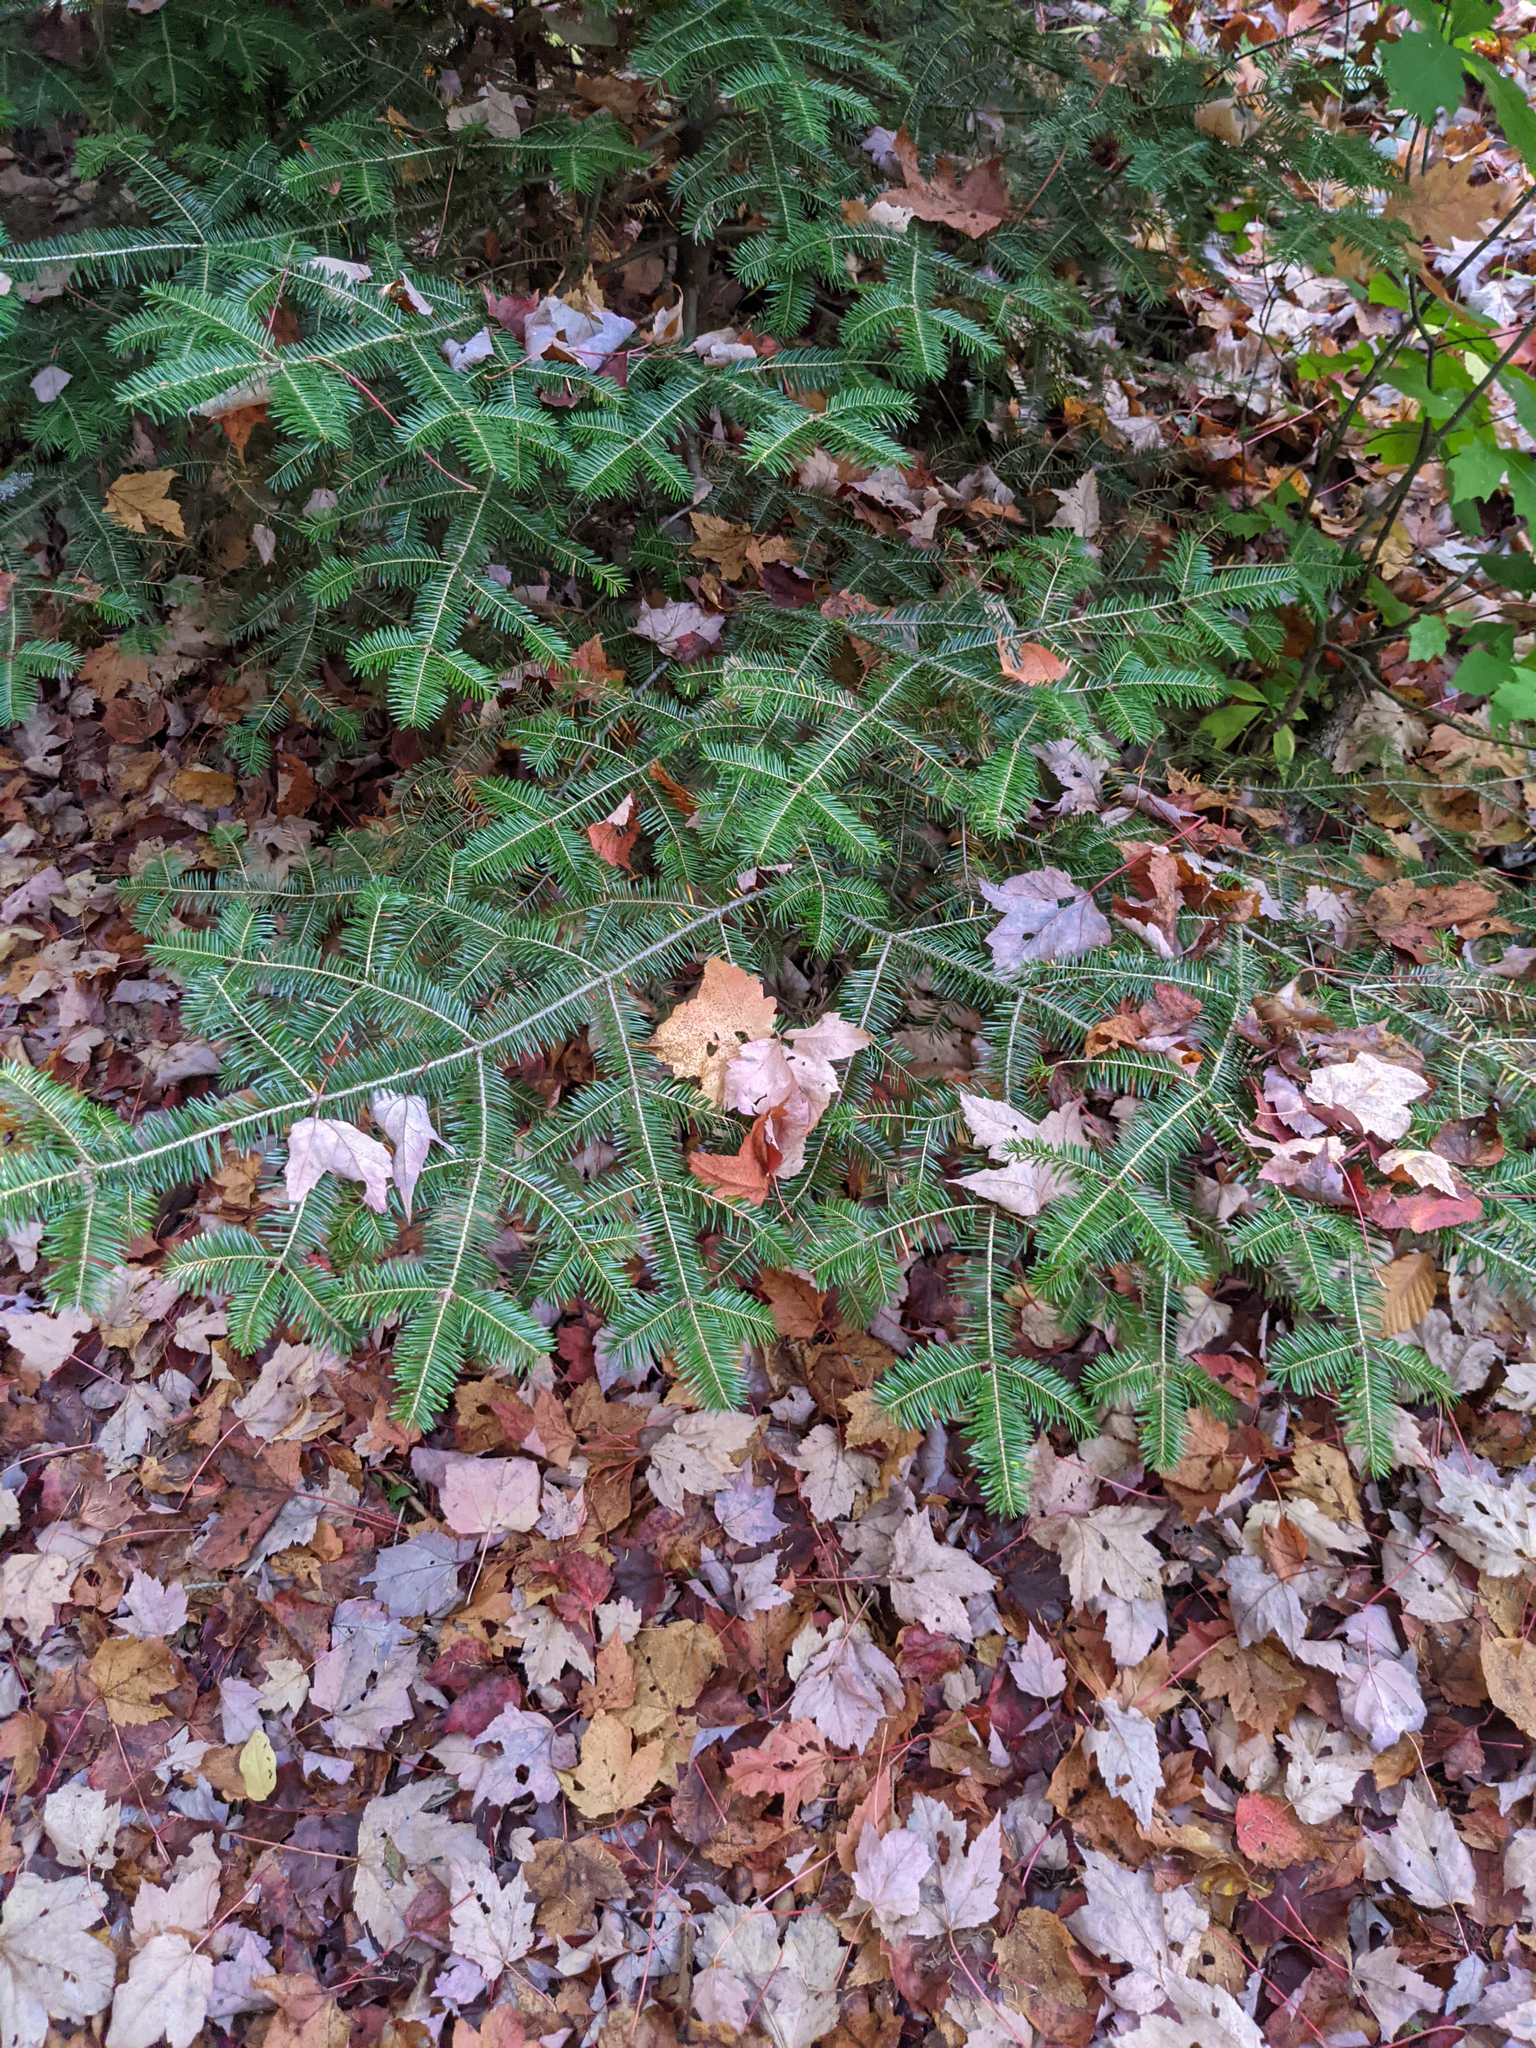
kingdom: Plantae
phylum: Tracheophyta
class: Pinopsida
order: Pinales
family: Pinaceae
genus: Abies
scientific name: Abies balsamea
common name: Balsam fir
